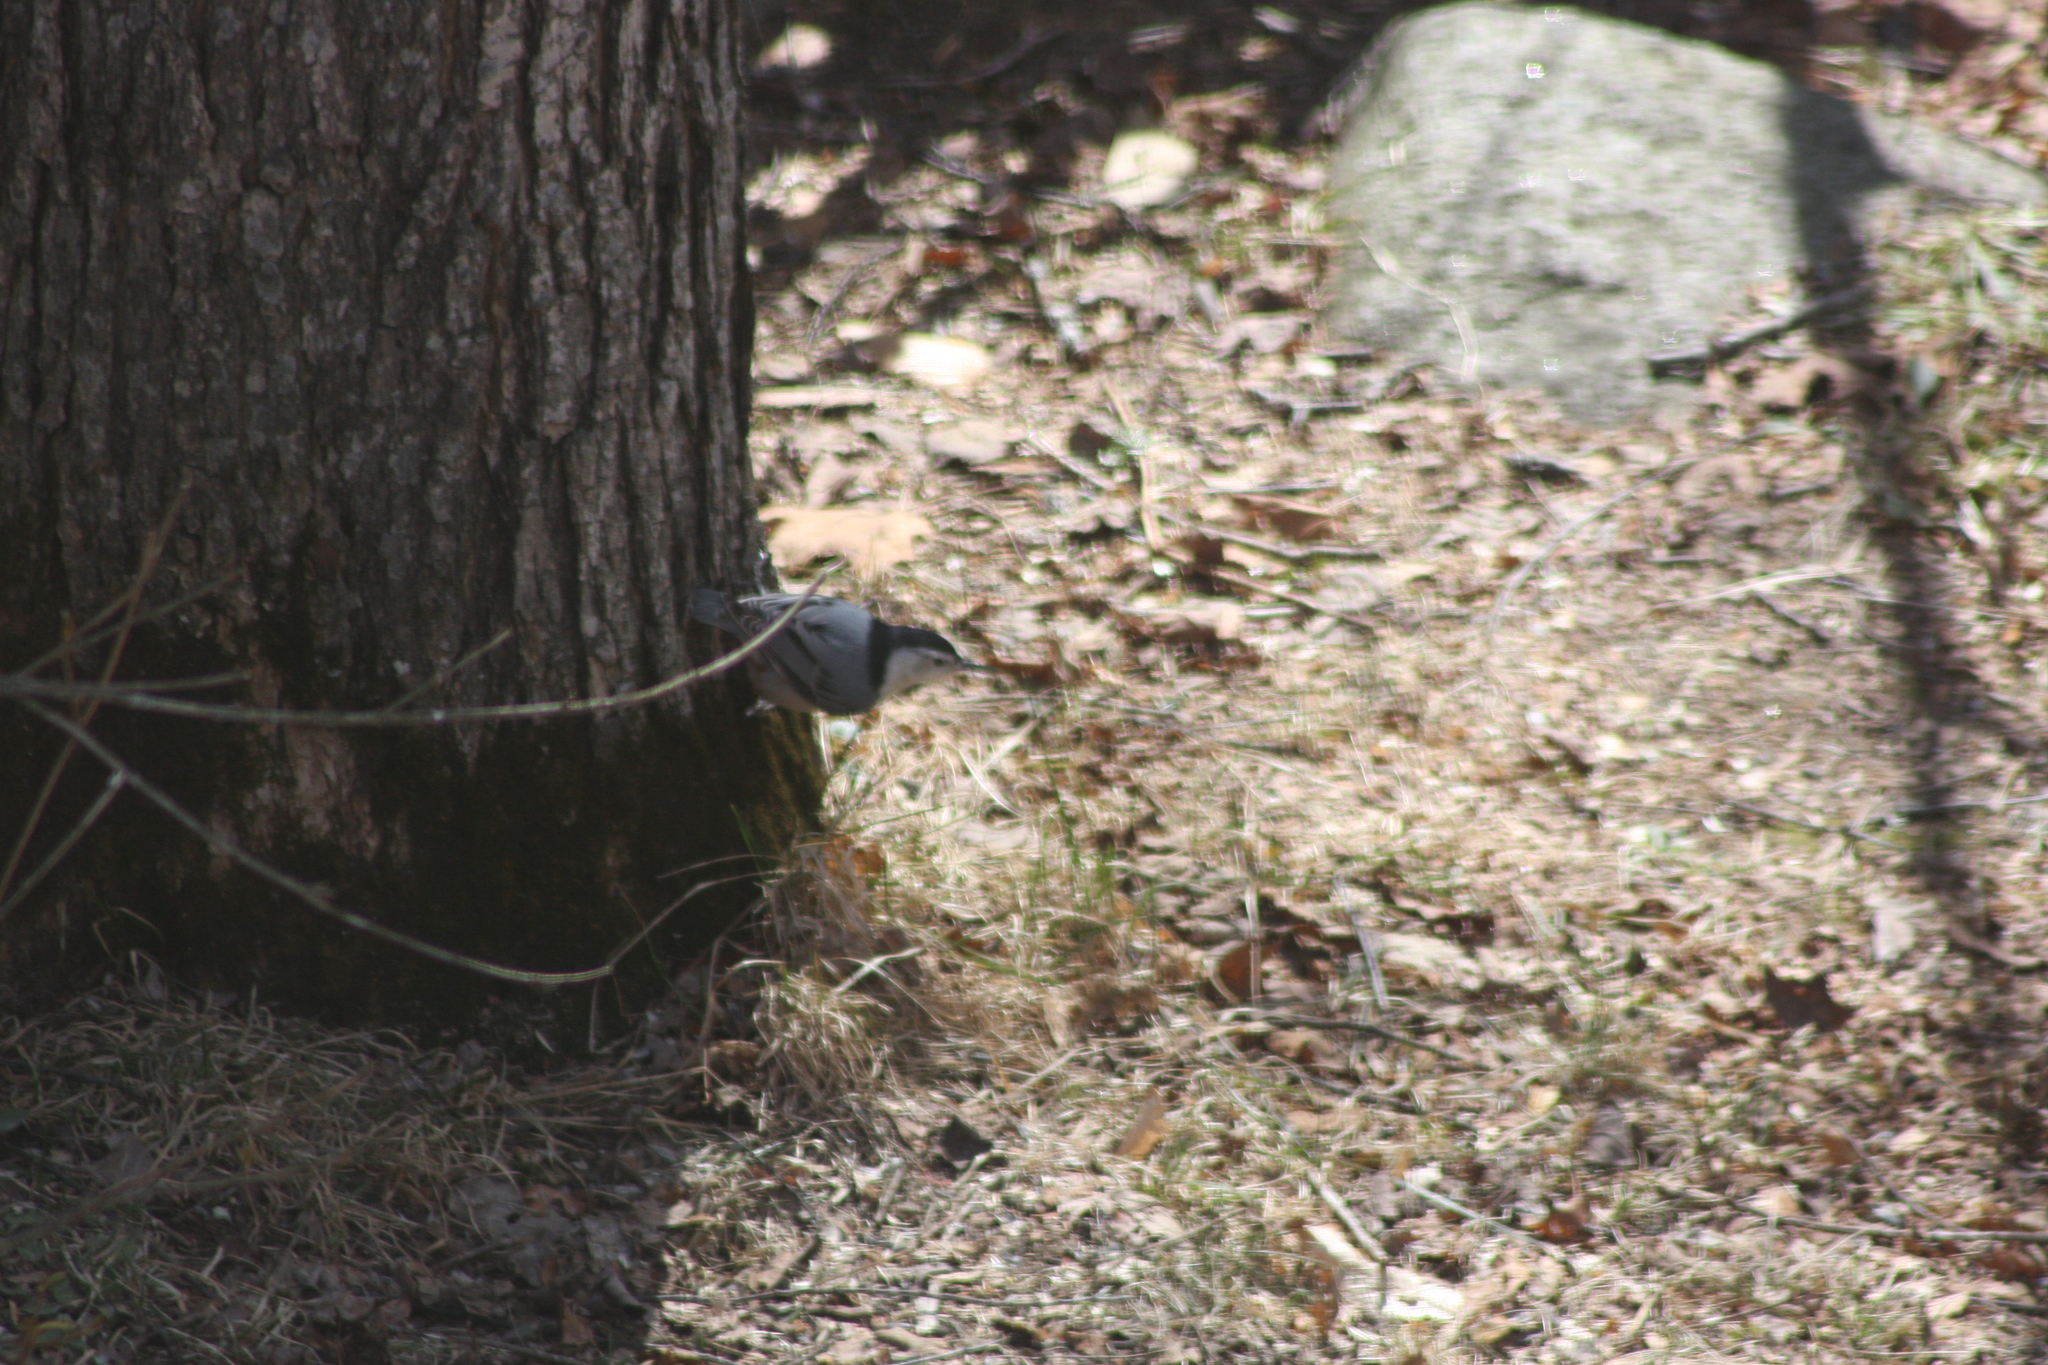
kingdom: Animalia
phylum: Chordata
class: Aves
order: Passeriformes
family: Sittidae
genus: Sitta
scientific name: Sitta carolinensis
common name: White-breasted nuthatch
